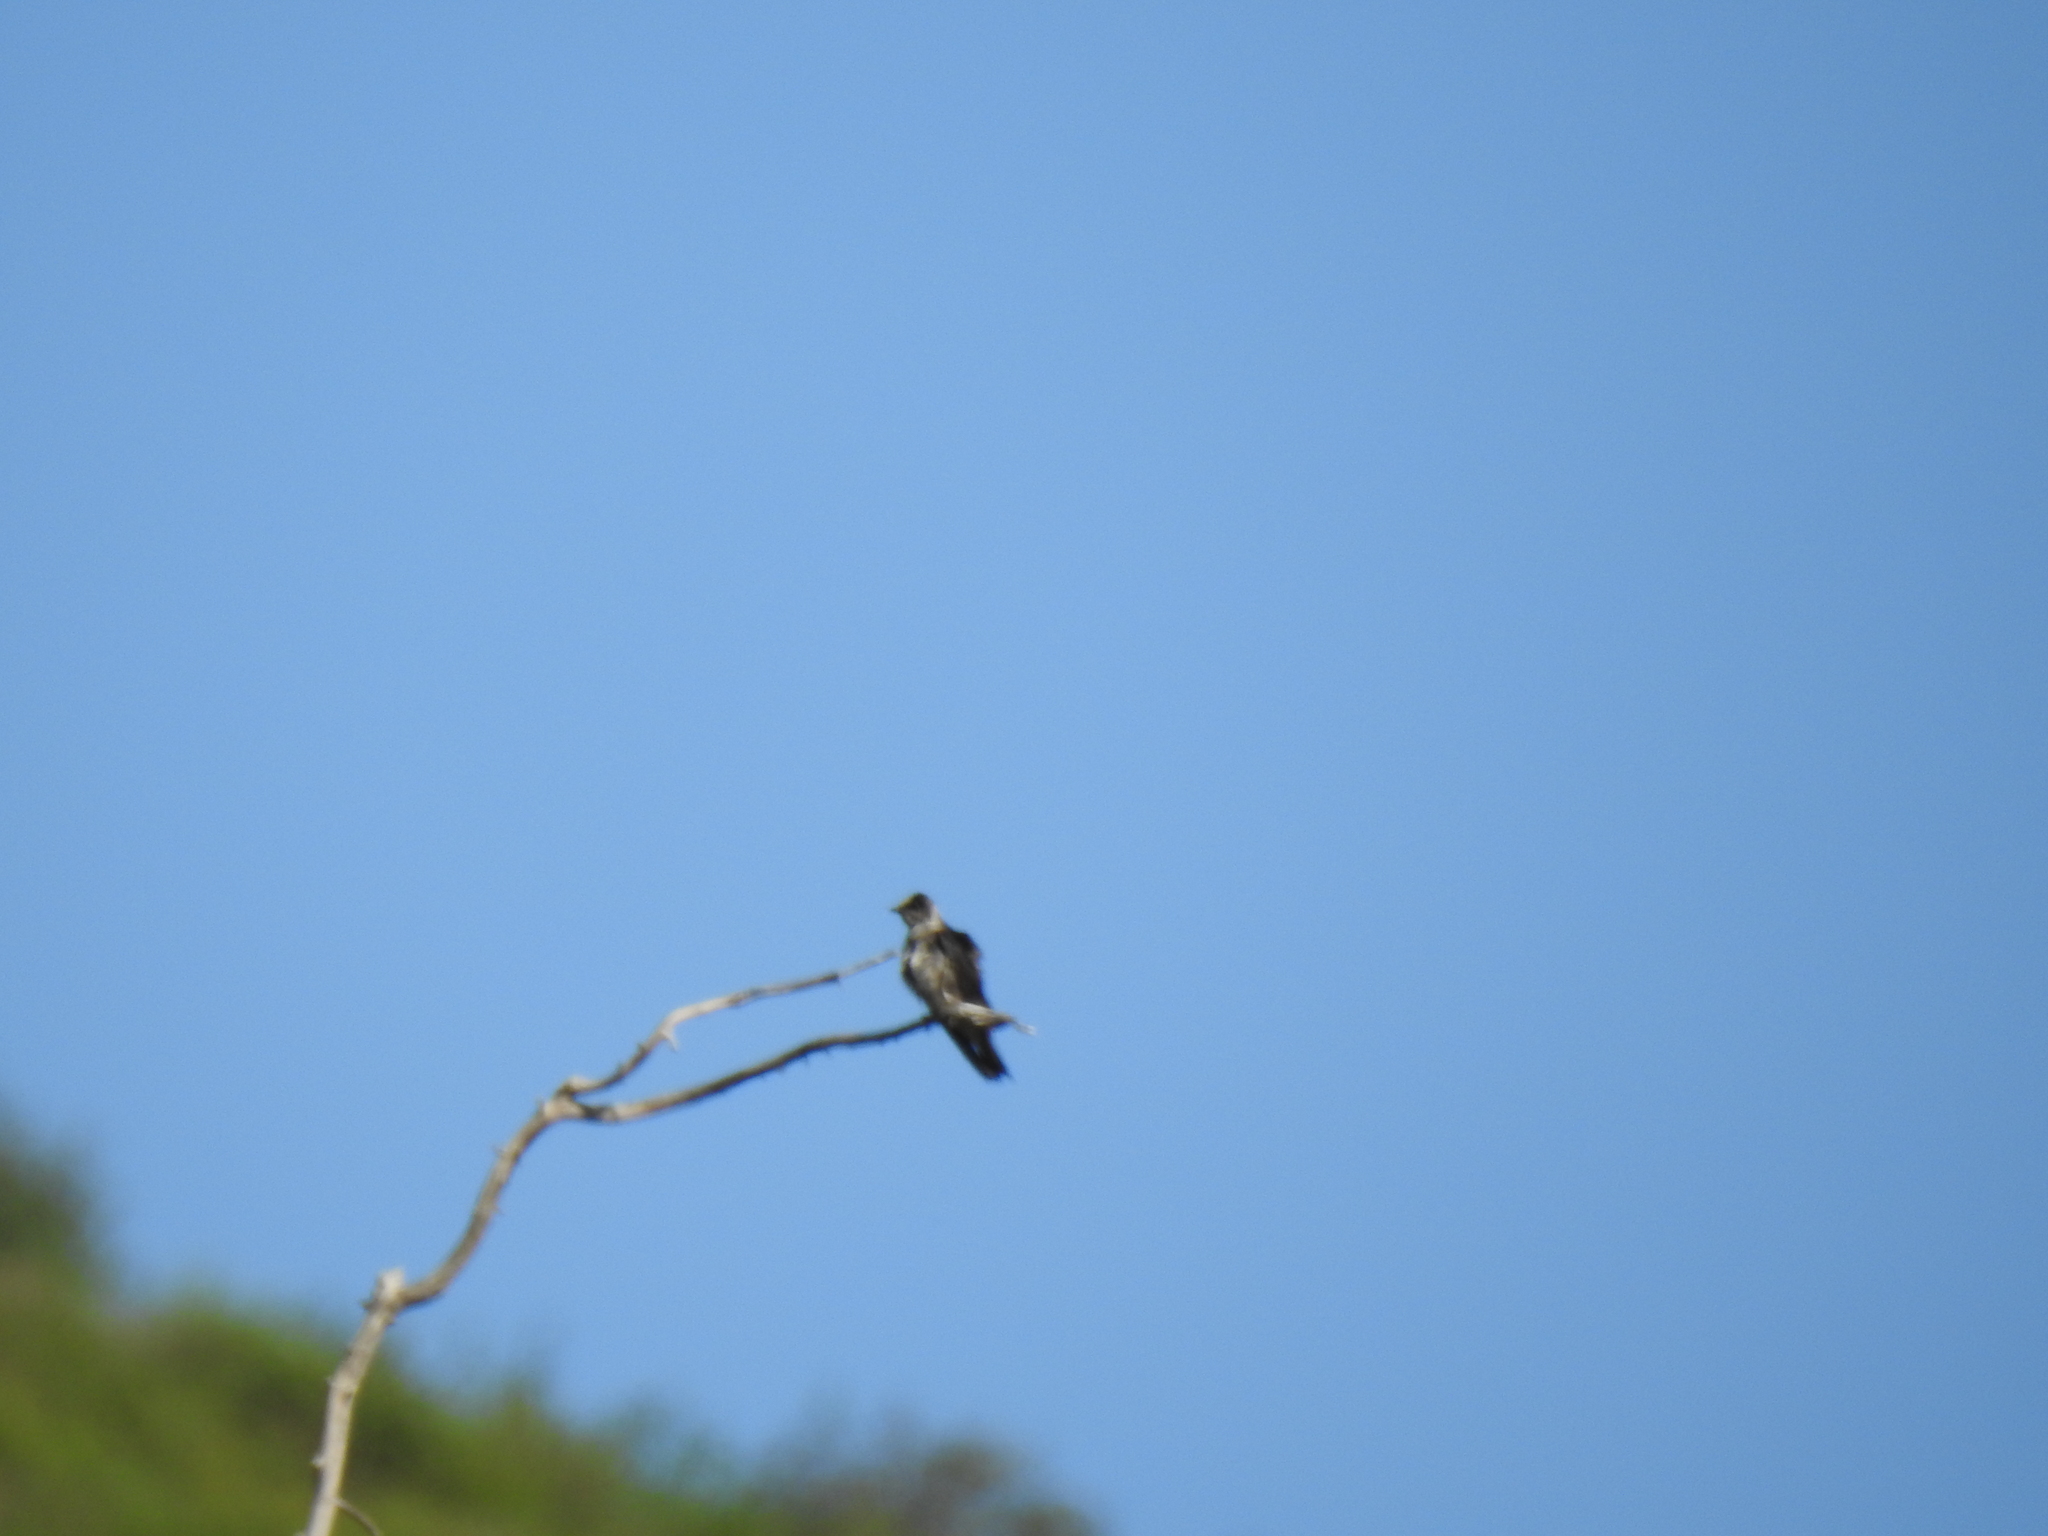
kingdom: Animalia
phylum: Chordata
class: Aves
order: Passeriformes
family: Hirundinidae
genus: Stelgidopteryx
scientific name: Stelgidopteryx serripennis
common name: Northern rough-winged swallow
